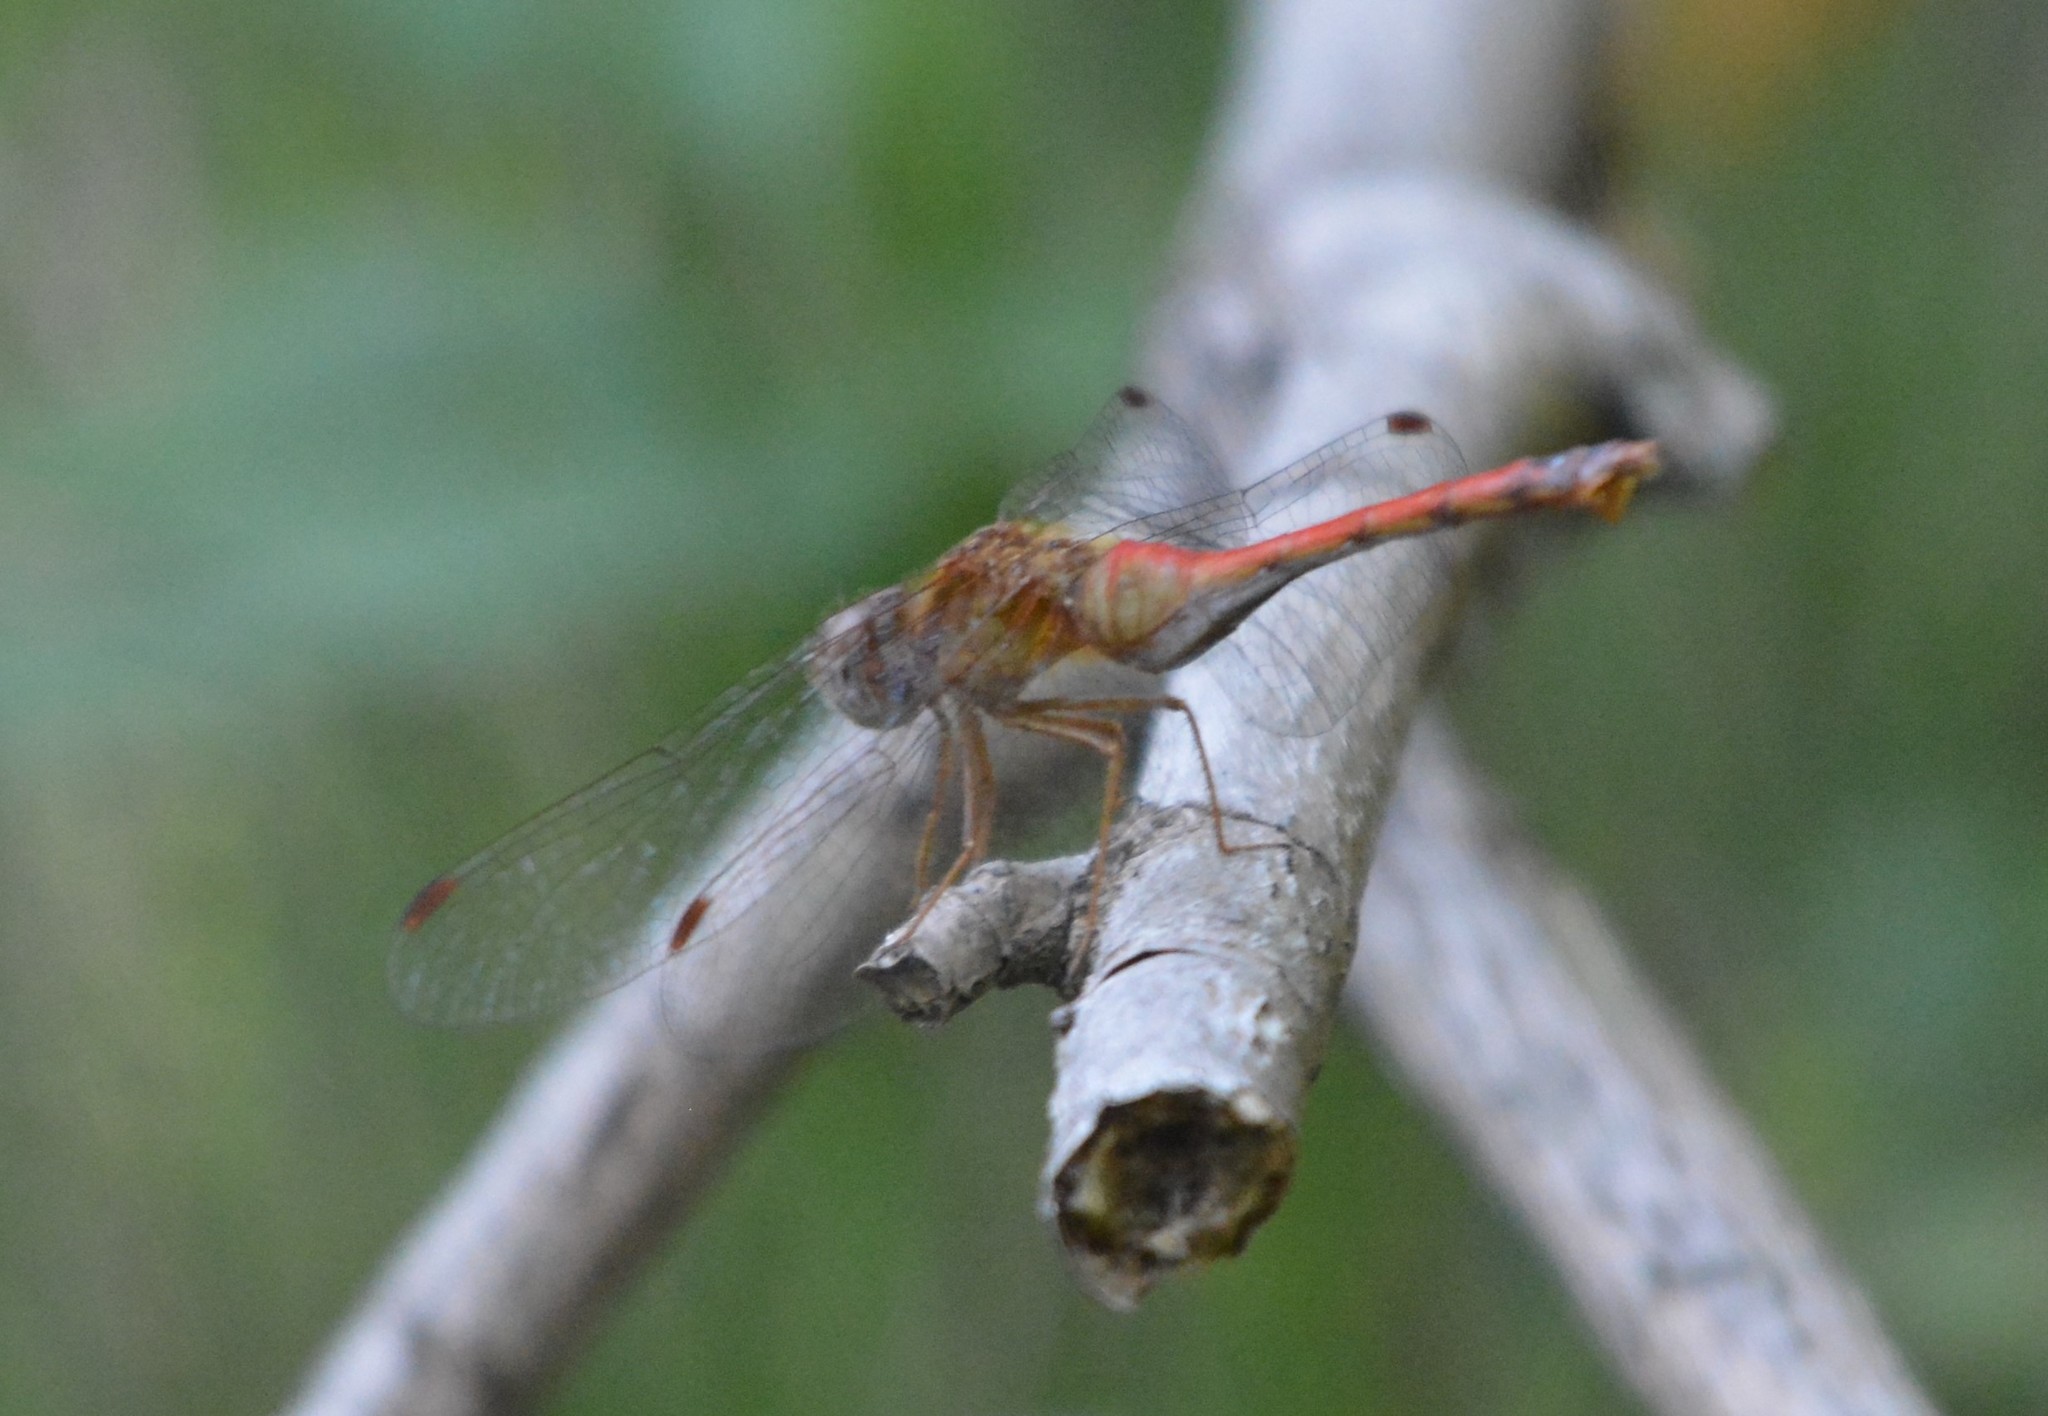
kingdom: Animalia
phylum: Arthropoda
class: Insecta
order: Odonata
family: Libellulidae
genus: Sympetrum
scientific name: Sympetrum vicinum
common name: Autumn meadowhawk
